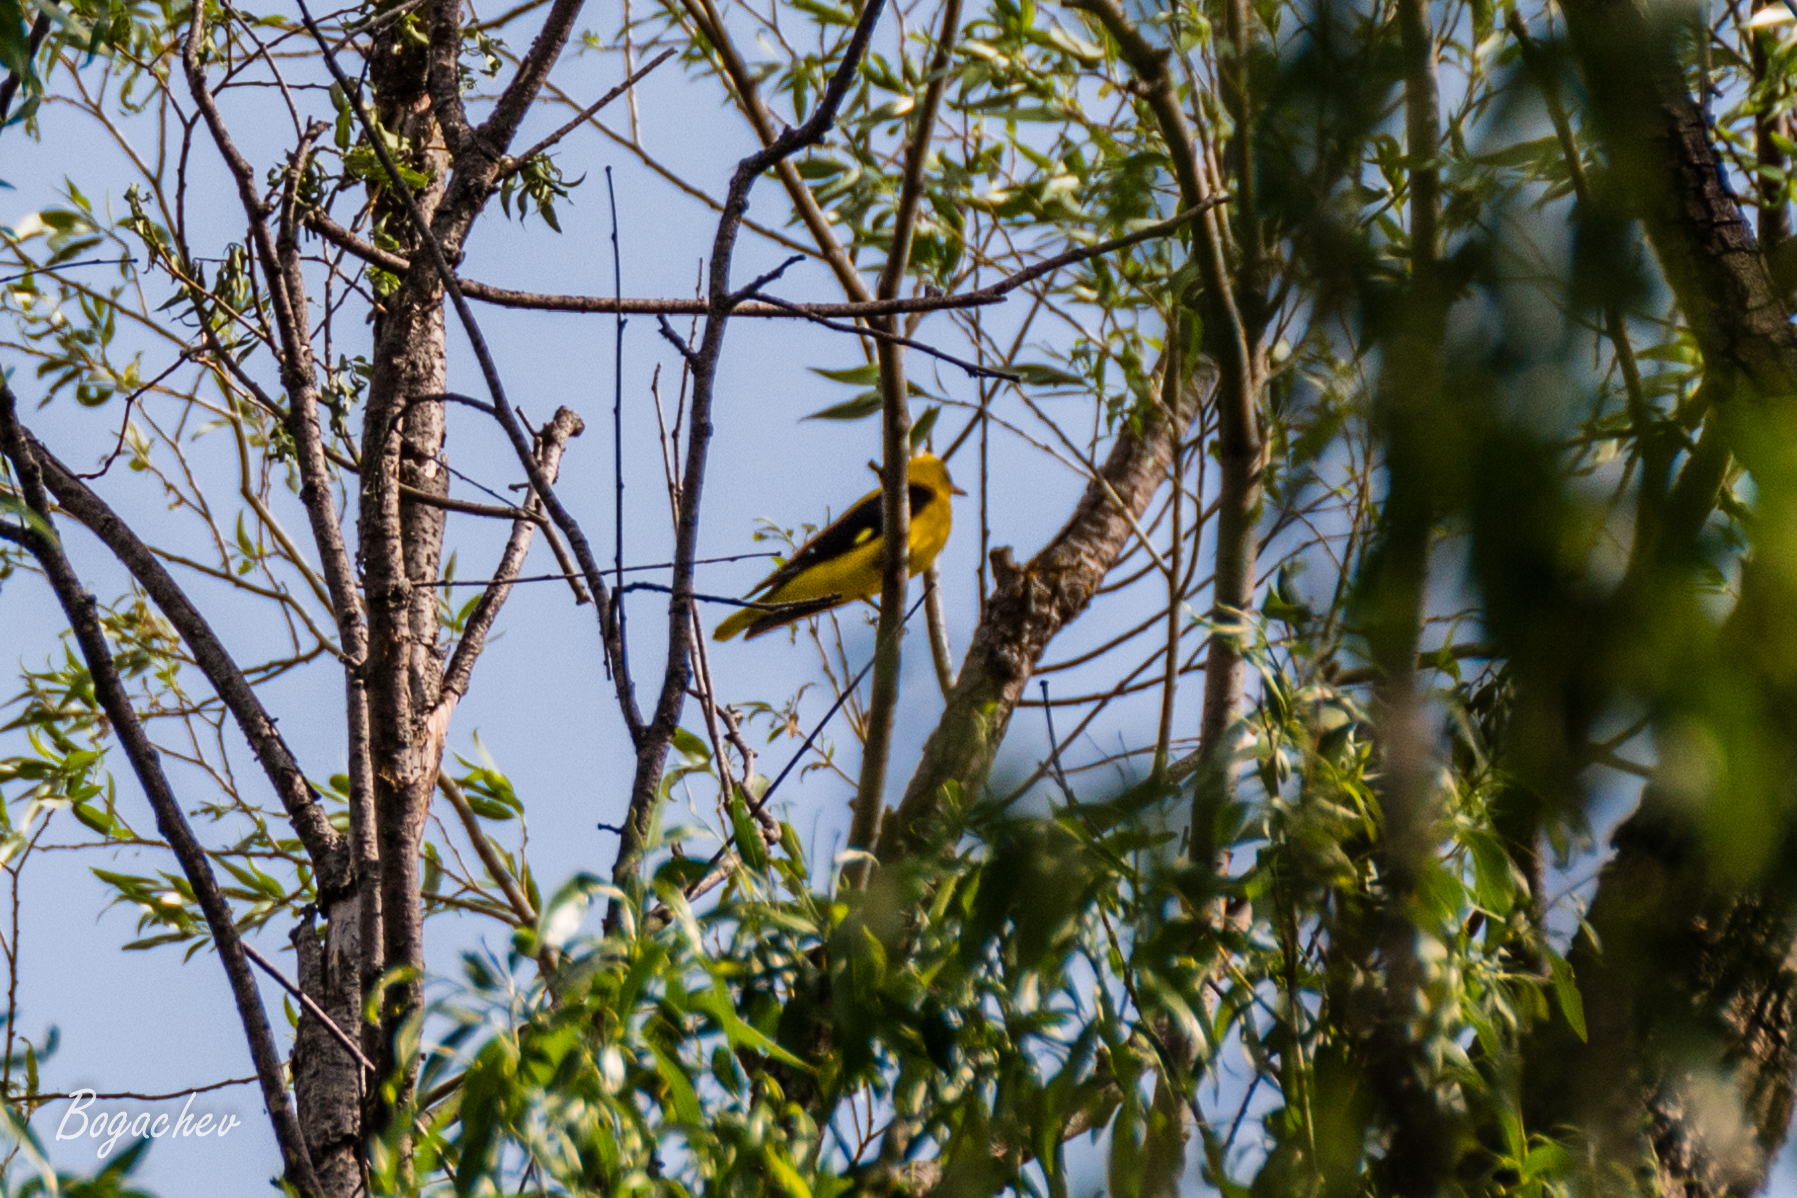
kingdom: Animalia
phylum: Chordata
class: Aves
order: Passeriformes
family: Oriolidae
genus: Oriolus
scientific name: Oriolus oriolus
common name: Eurasian golden oriole
